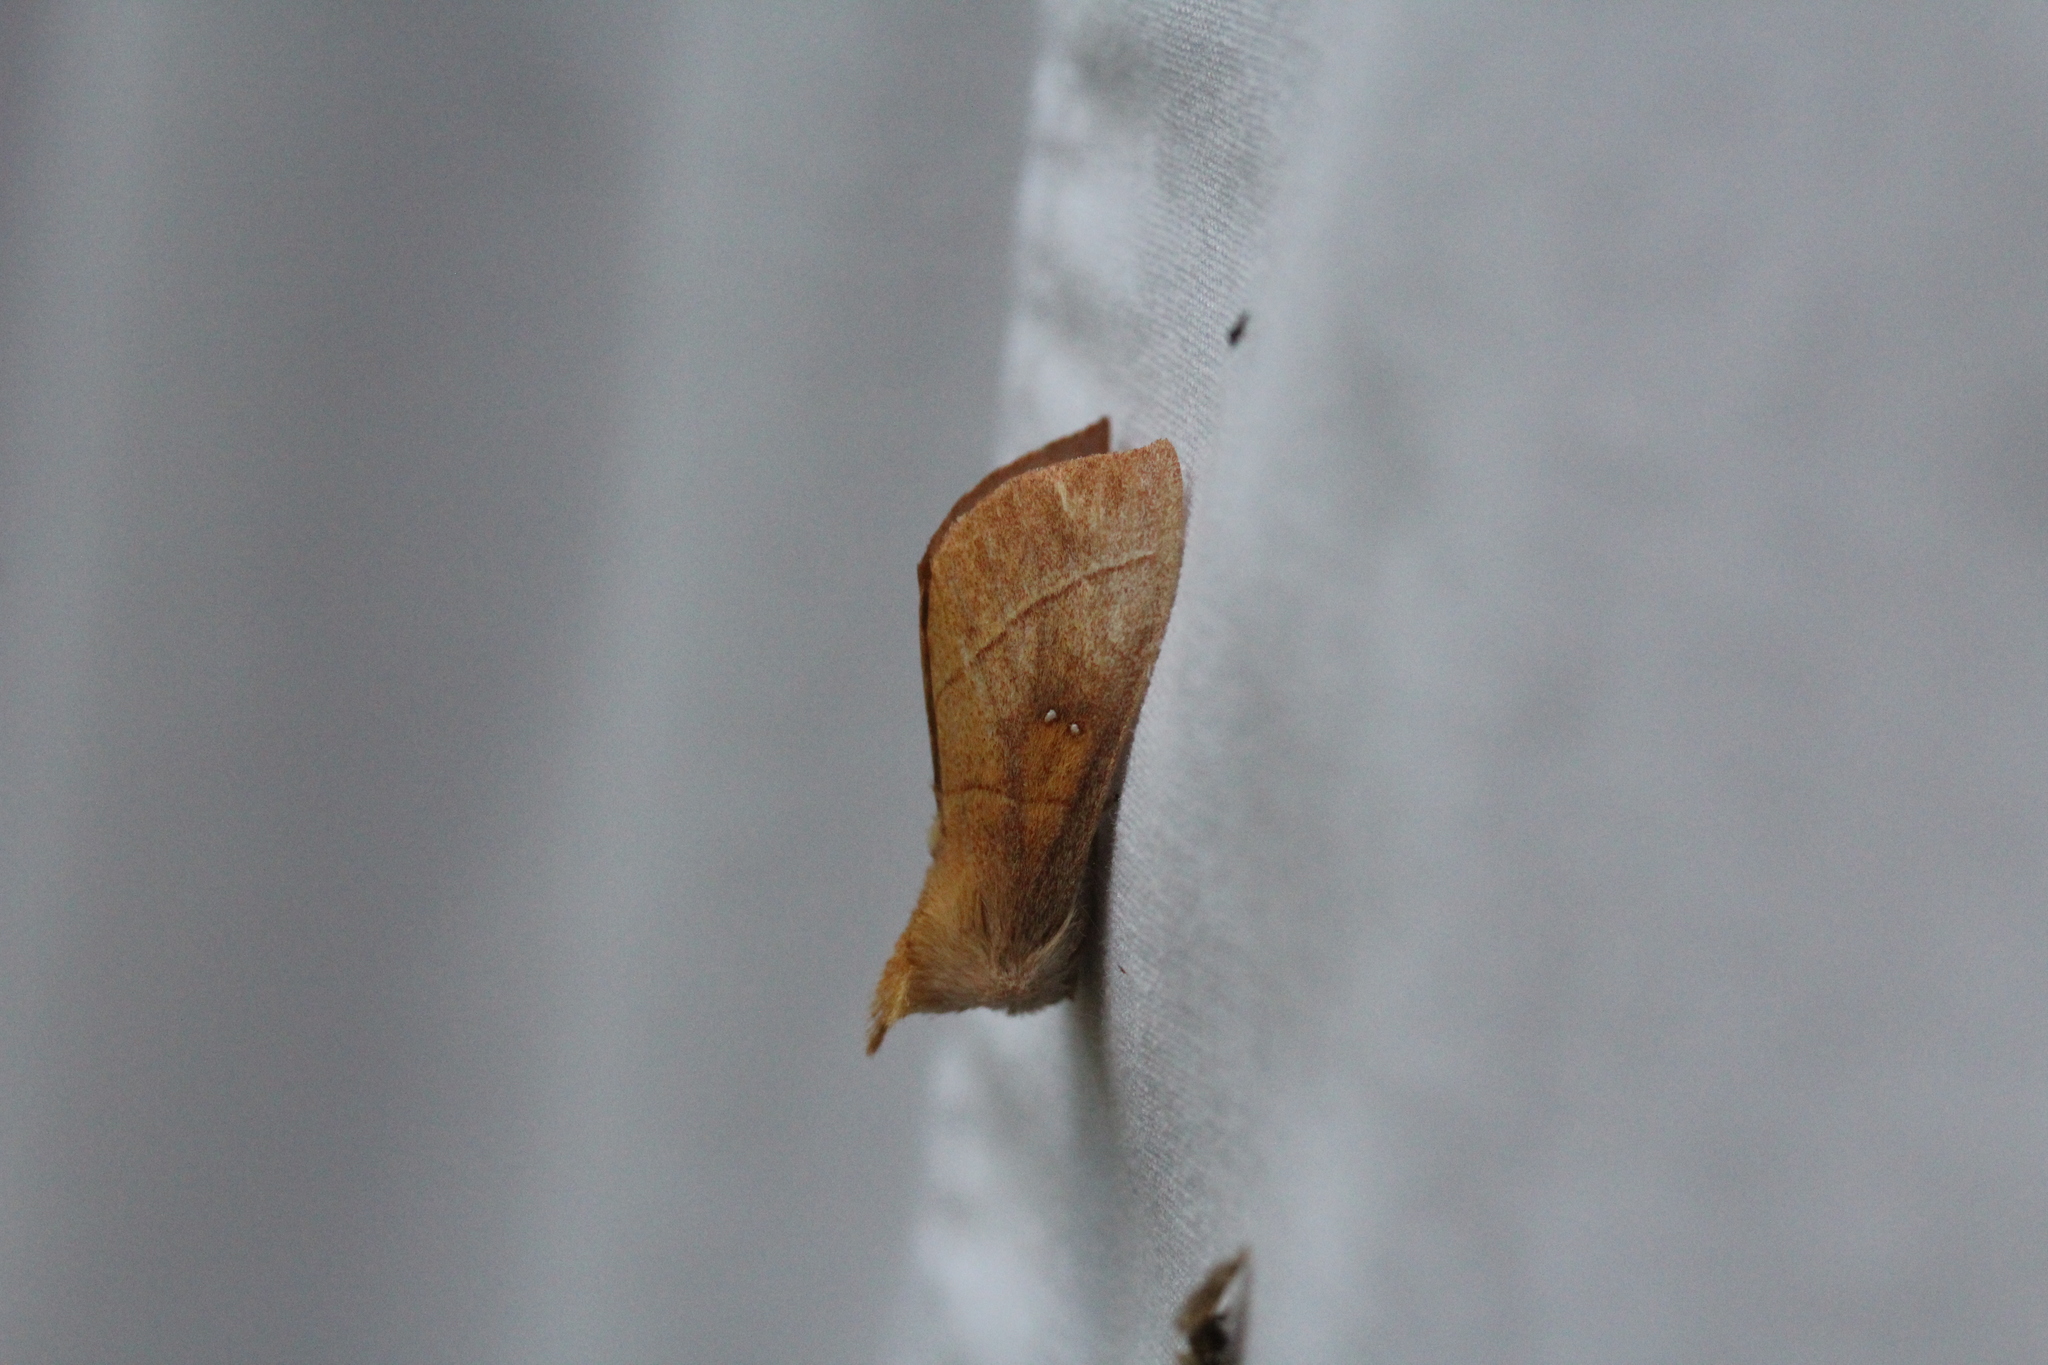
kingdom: Animalia
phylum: Arthropoda
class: Insecta
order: Lepidoptera
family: Notodontidae
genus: Nadata
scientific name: Nadata gibbosa
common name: White-dotted prominent
